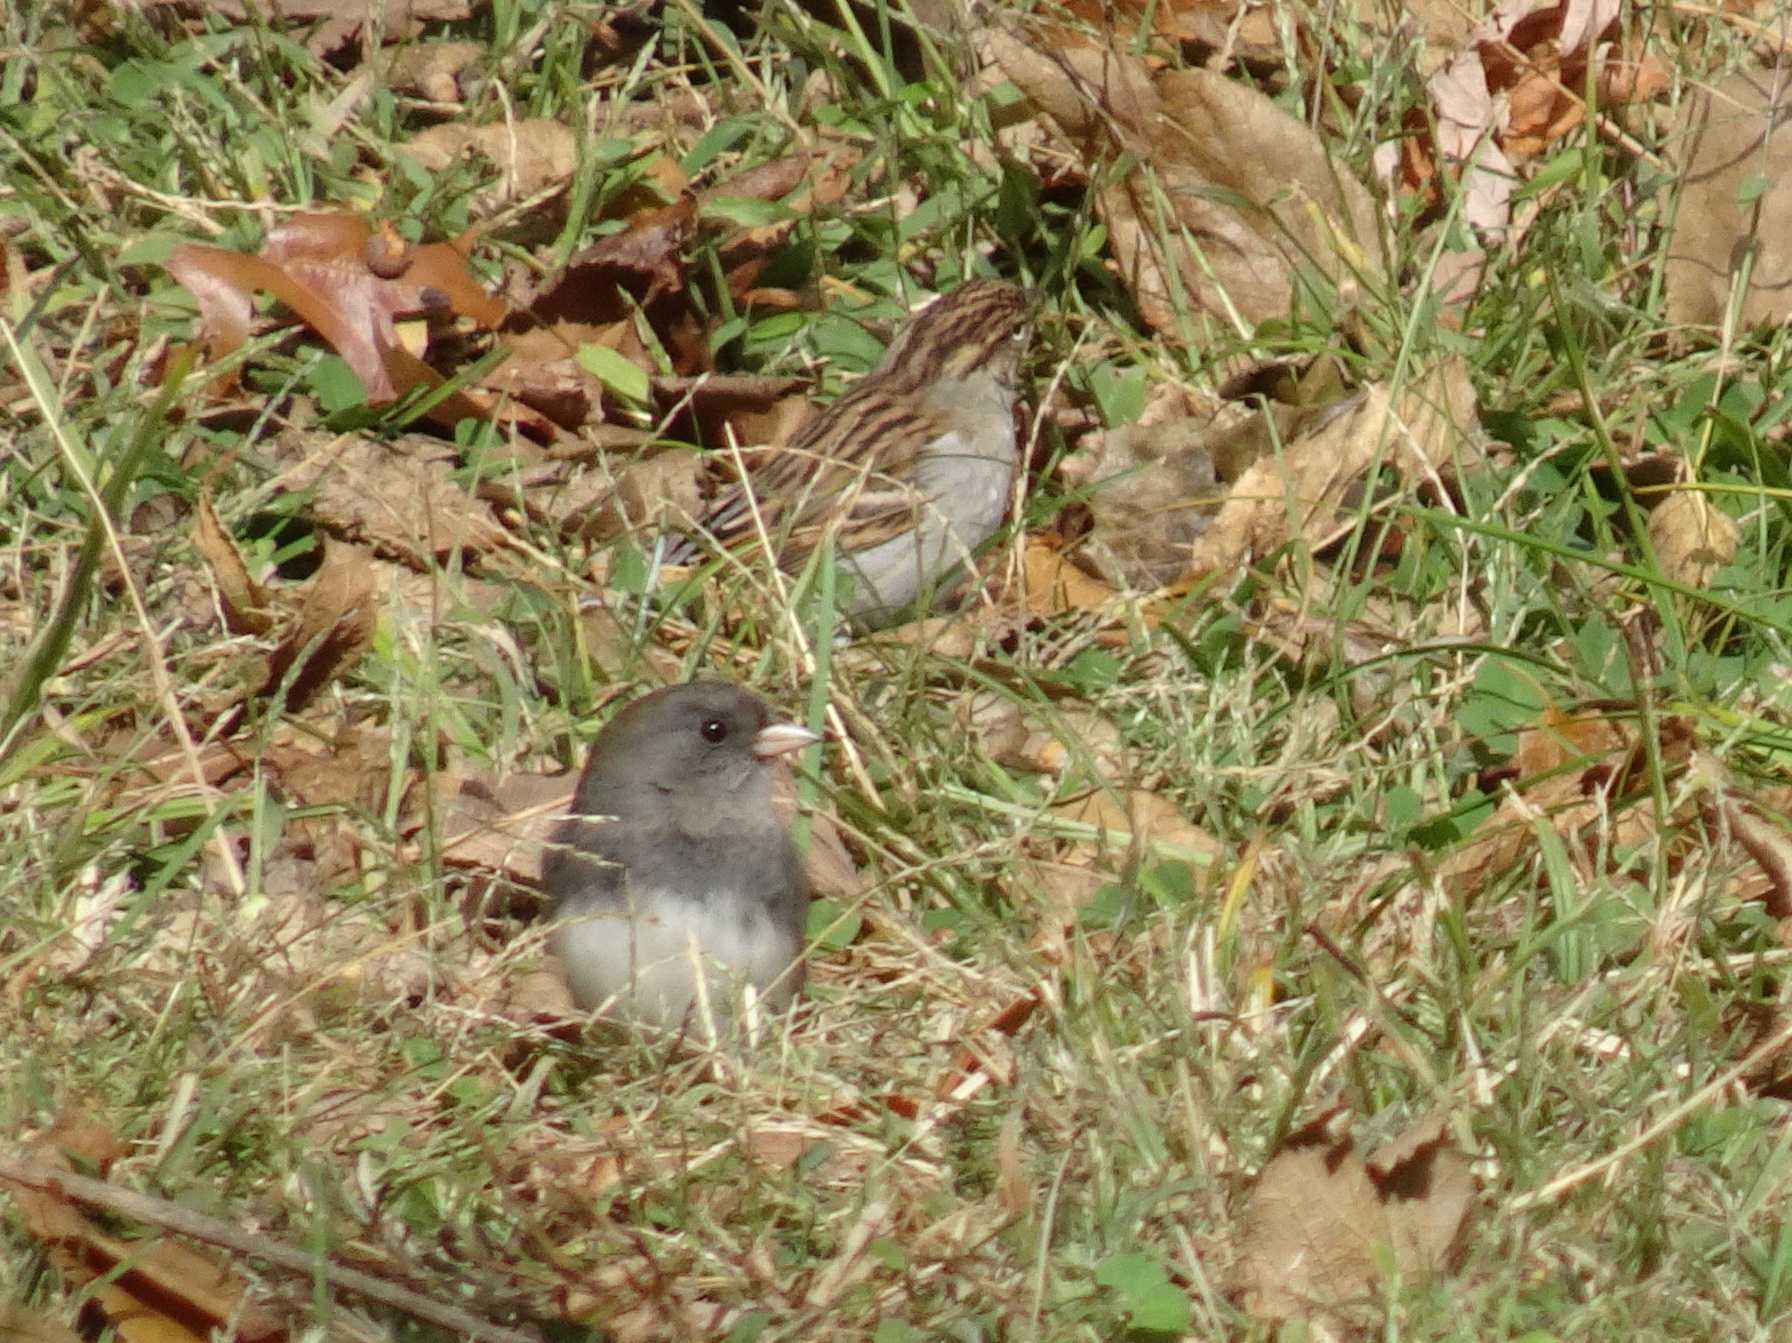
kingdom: Animalia
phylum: Chordata
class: Aves
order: Passeriformes
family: Passerellidae
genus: Junco
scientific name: Junco hyemalis
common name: Dark-eyed junco
